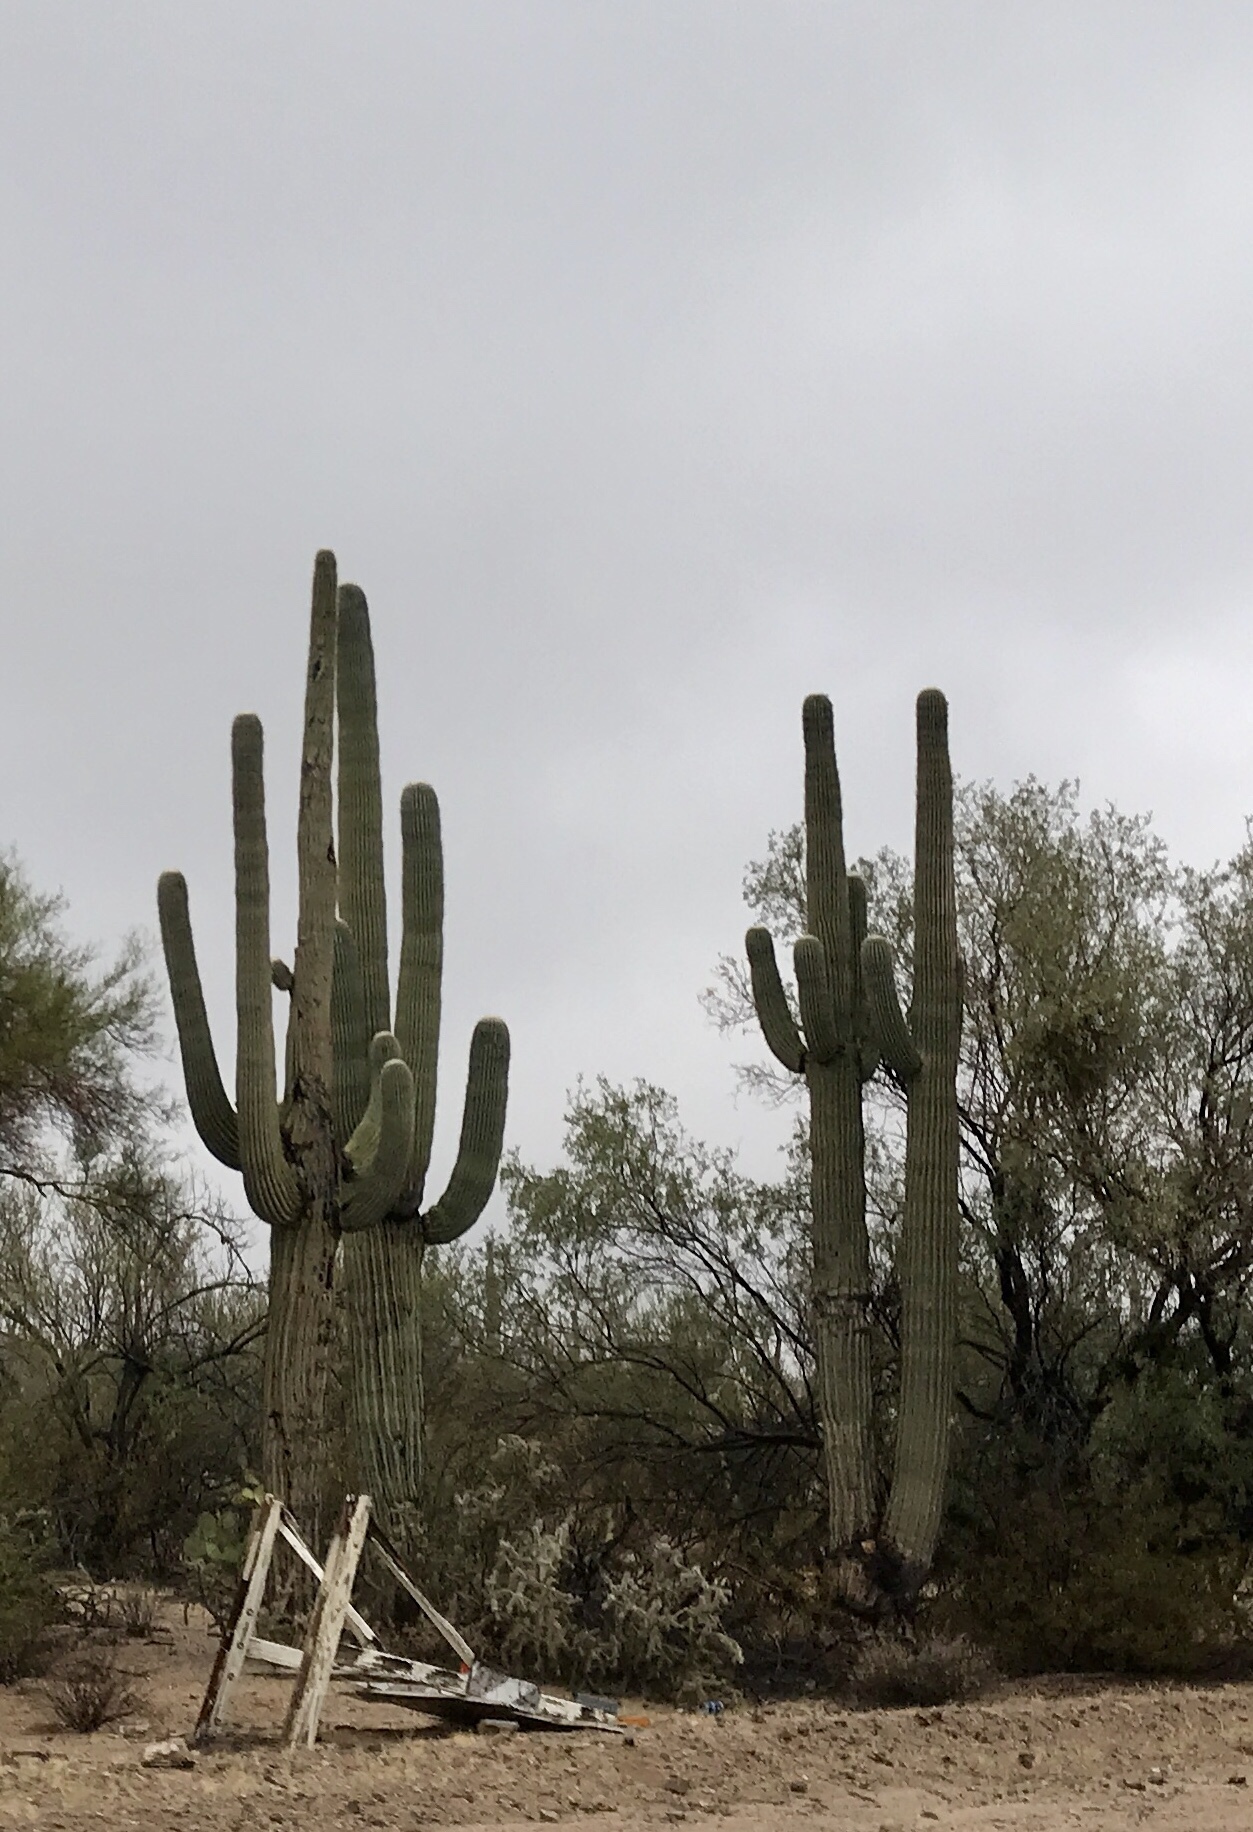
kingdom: Plantae
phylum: Tracheophyta
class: Magnoliopsida
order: Caryophyllales
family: Cactaceae
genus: Carnegiea
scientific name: Carnegiea gigantea
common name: Saguaro
